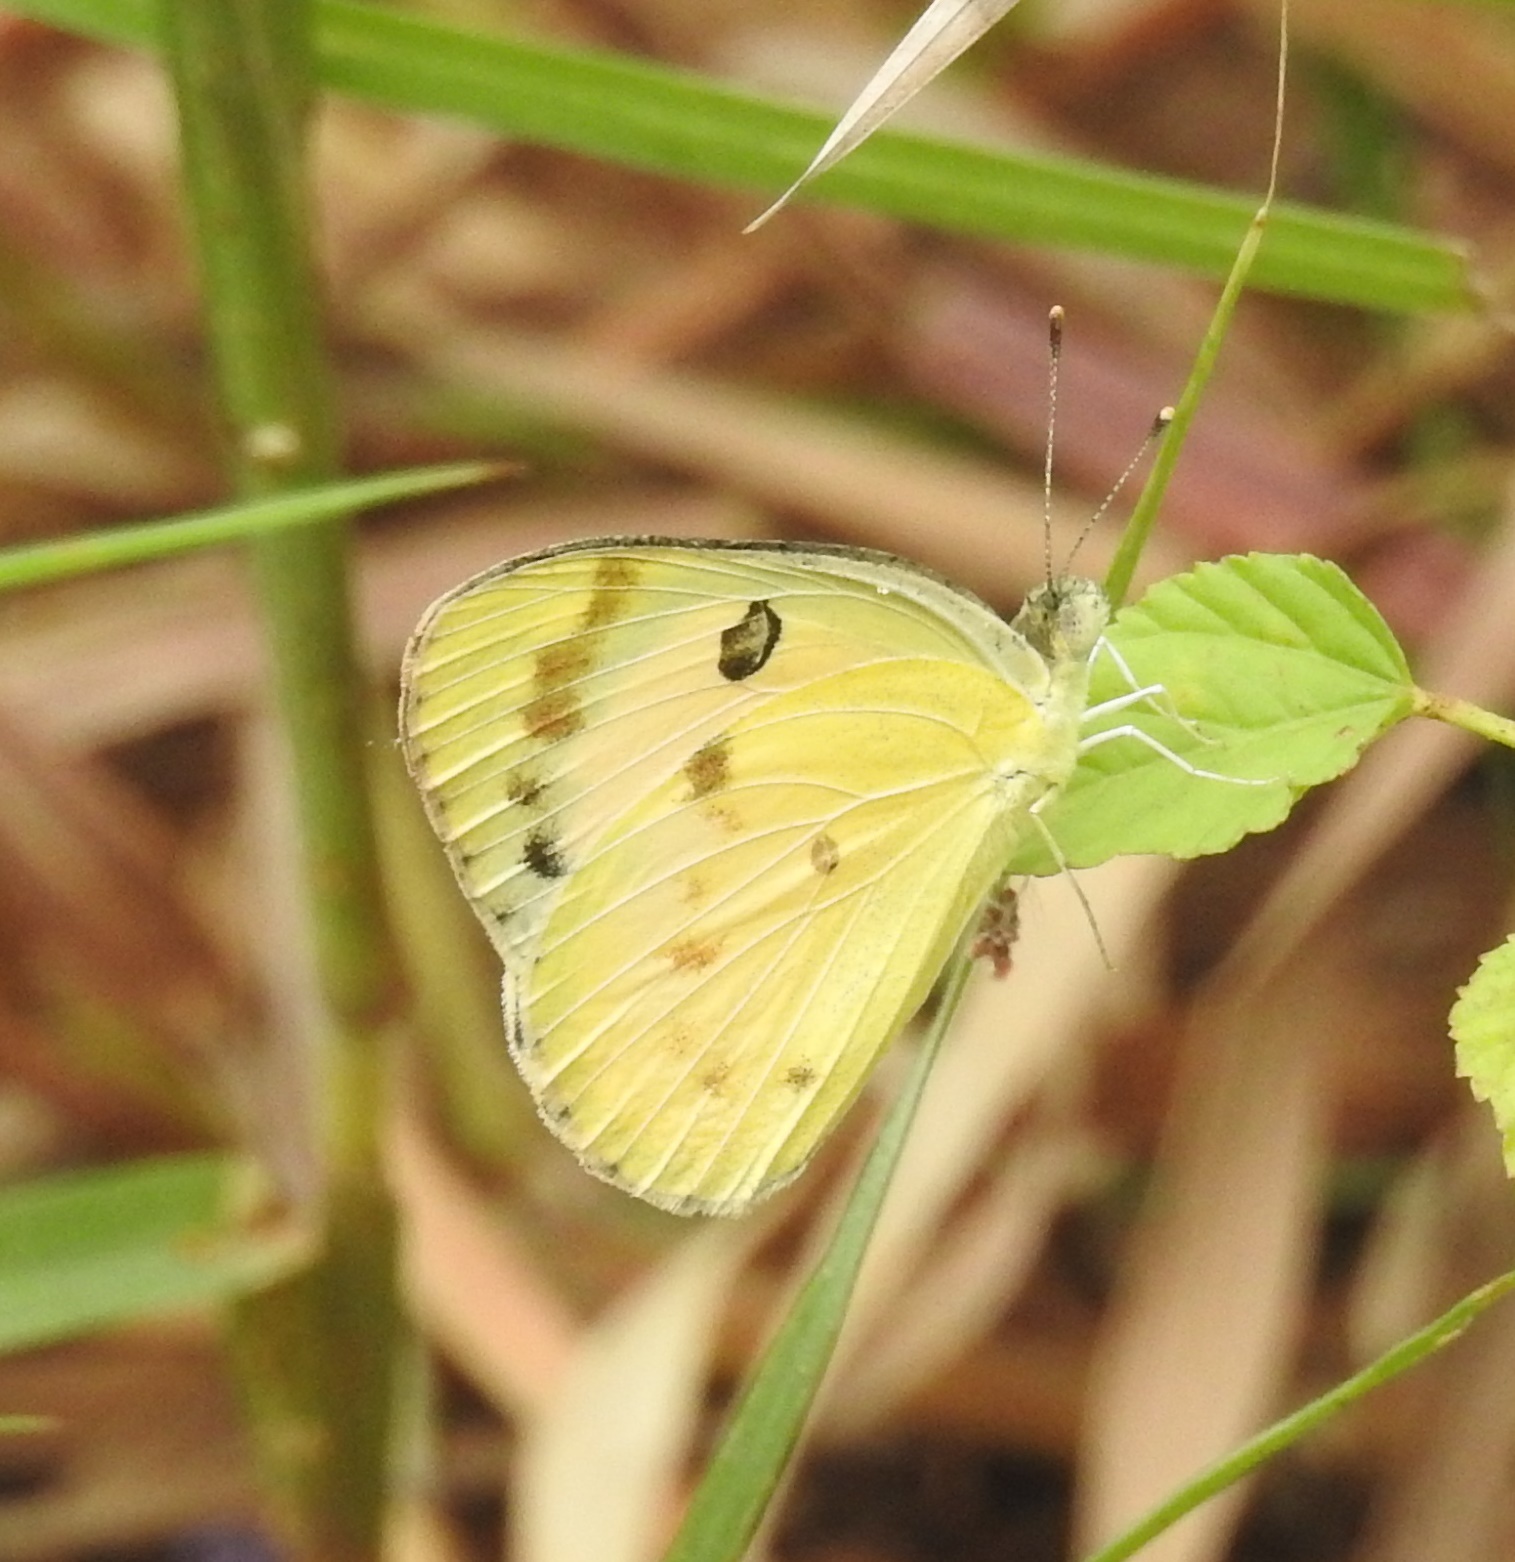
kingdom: Animalia
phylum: Arthropoda
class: Insecta
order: Lepidoptera
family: Pieridae
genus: Colotis
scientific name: Colotis fausta
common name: Large salmon arab
